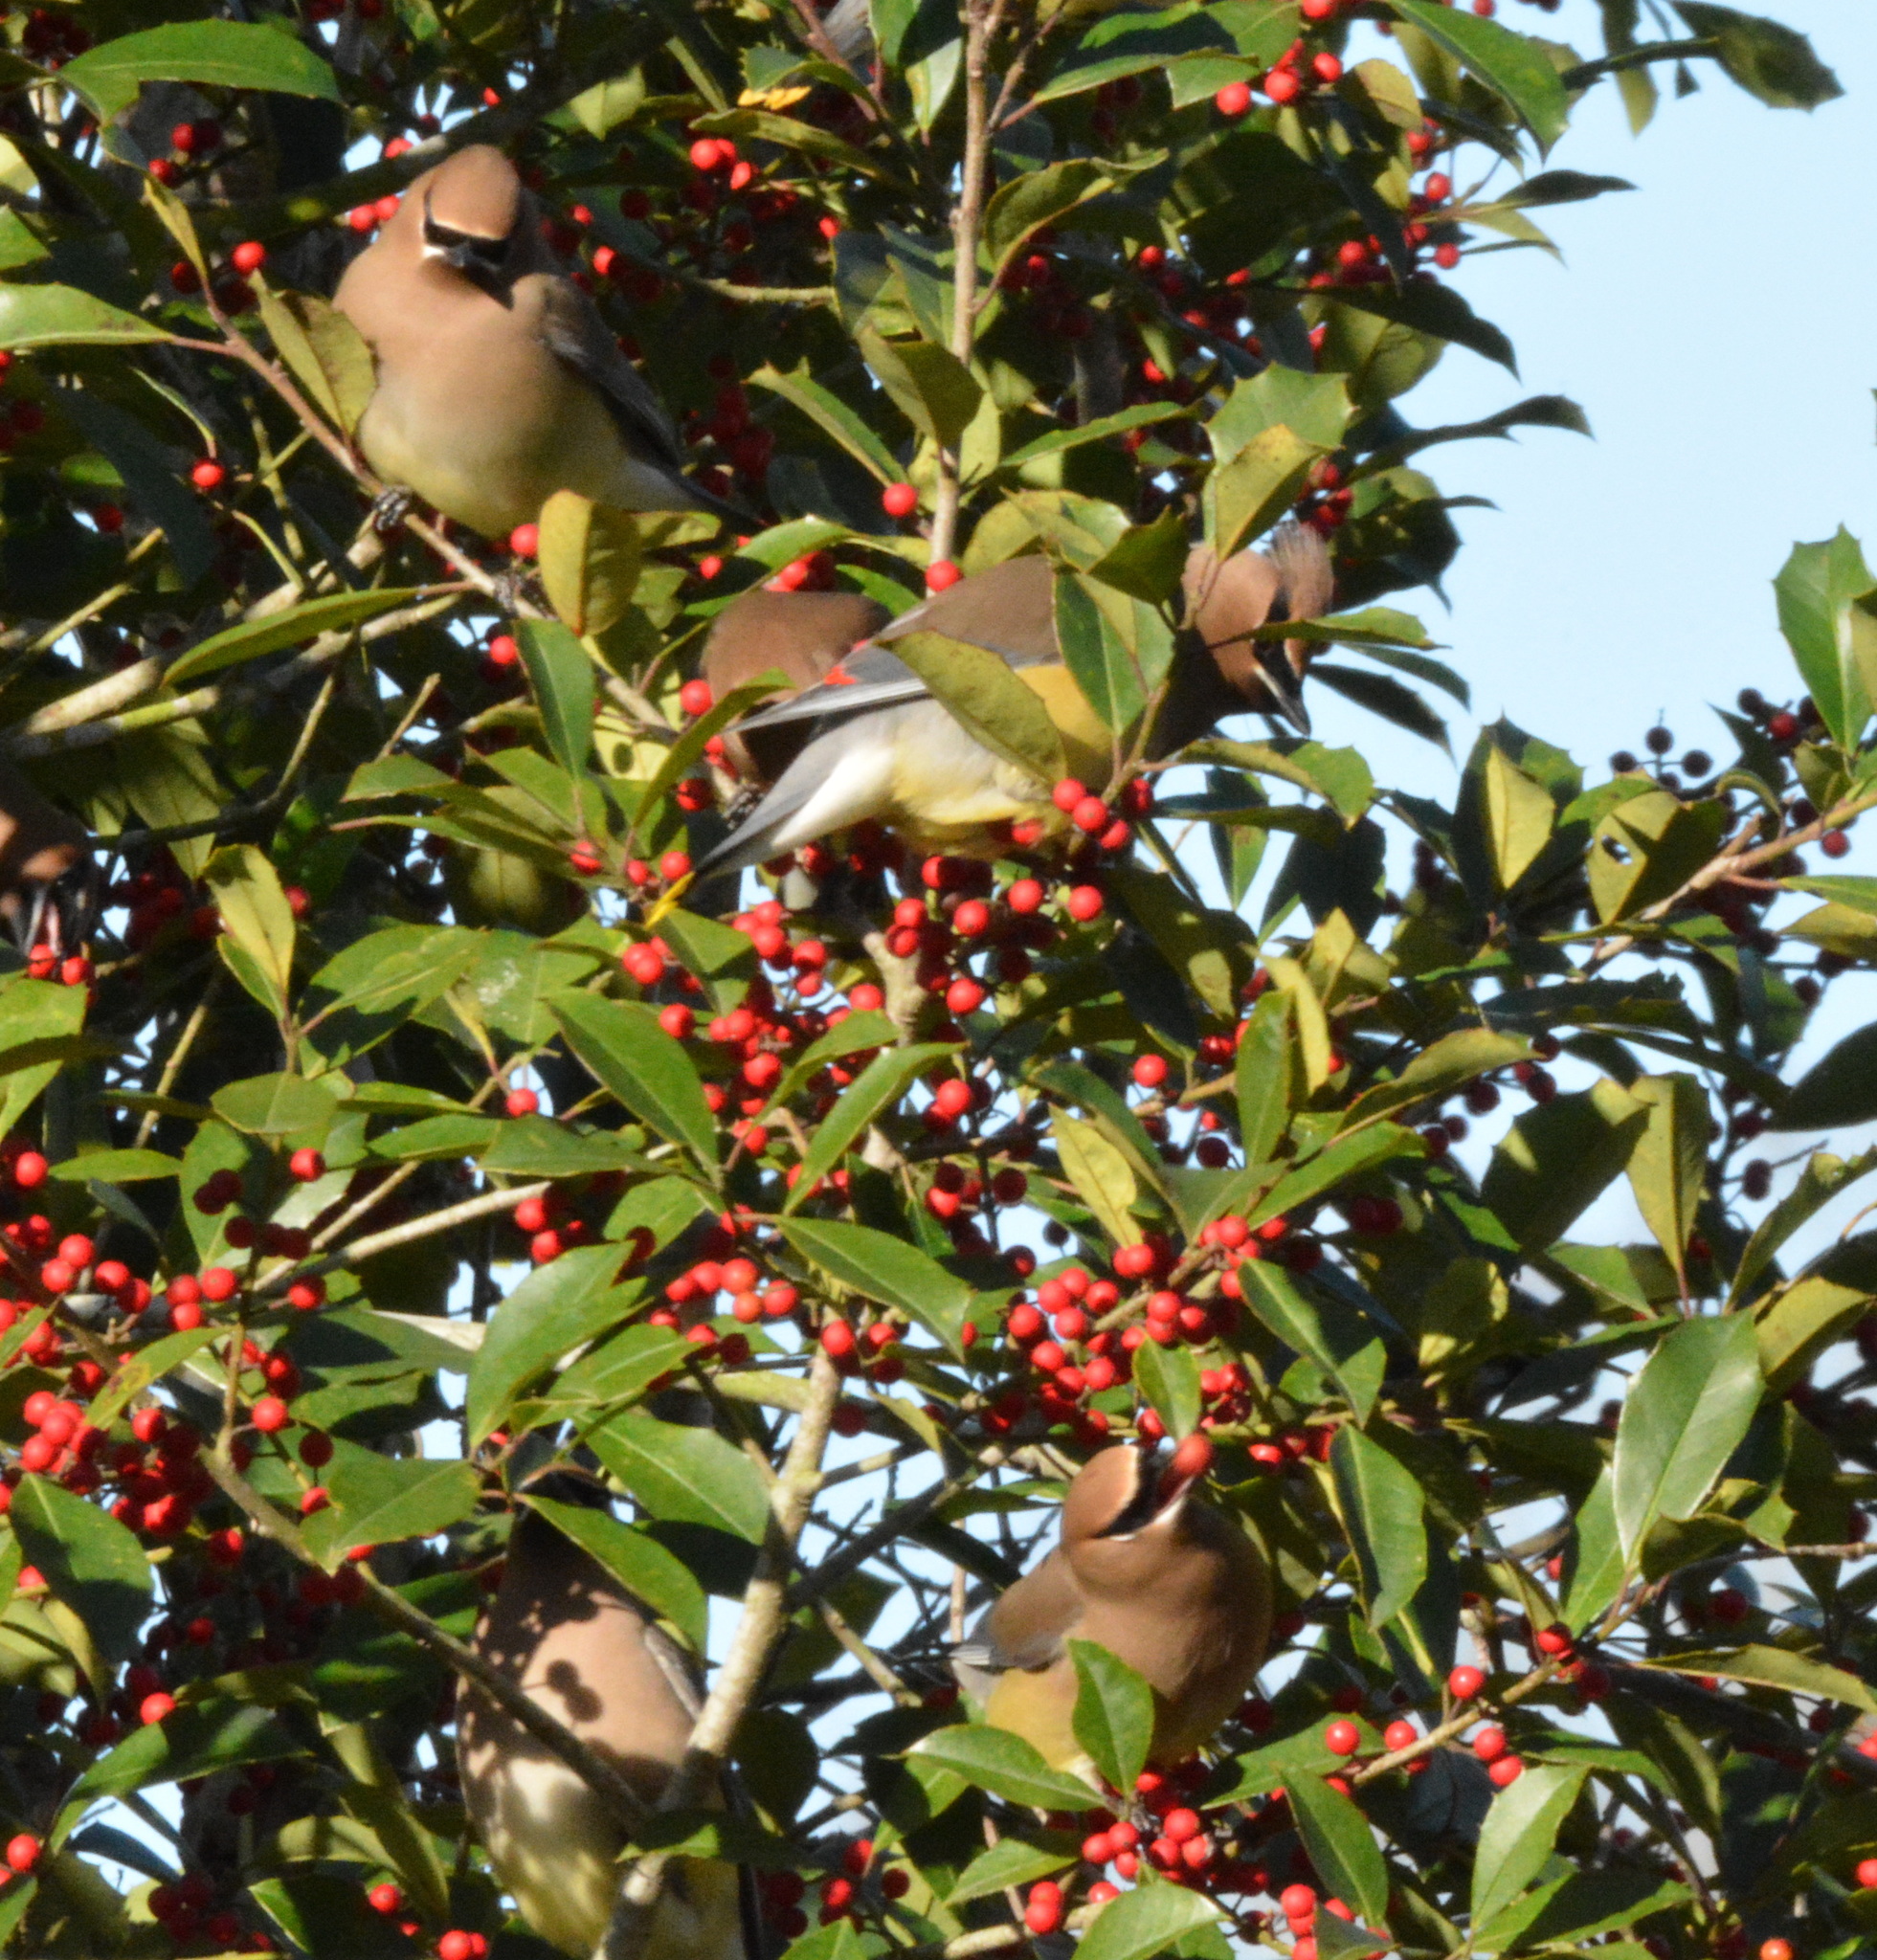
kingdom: Animalia
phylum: Chordata
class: Aves
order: Passeriformes
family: Bombycillidae
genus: Bombycilla
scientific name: Bombycilla cedrorum
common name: Cedar waxwing
